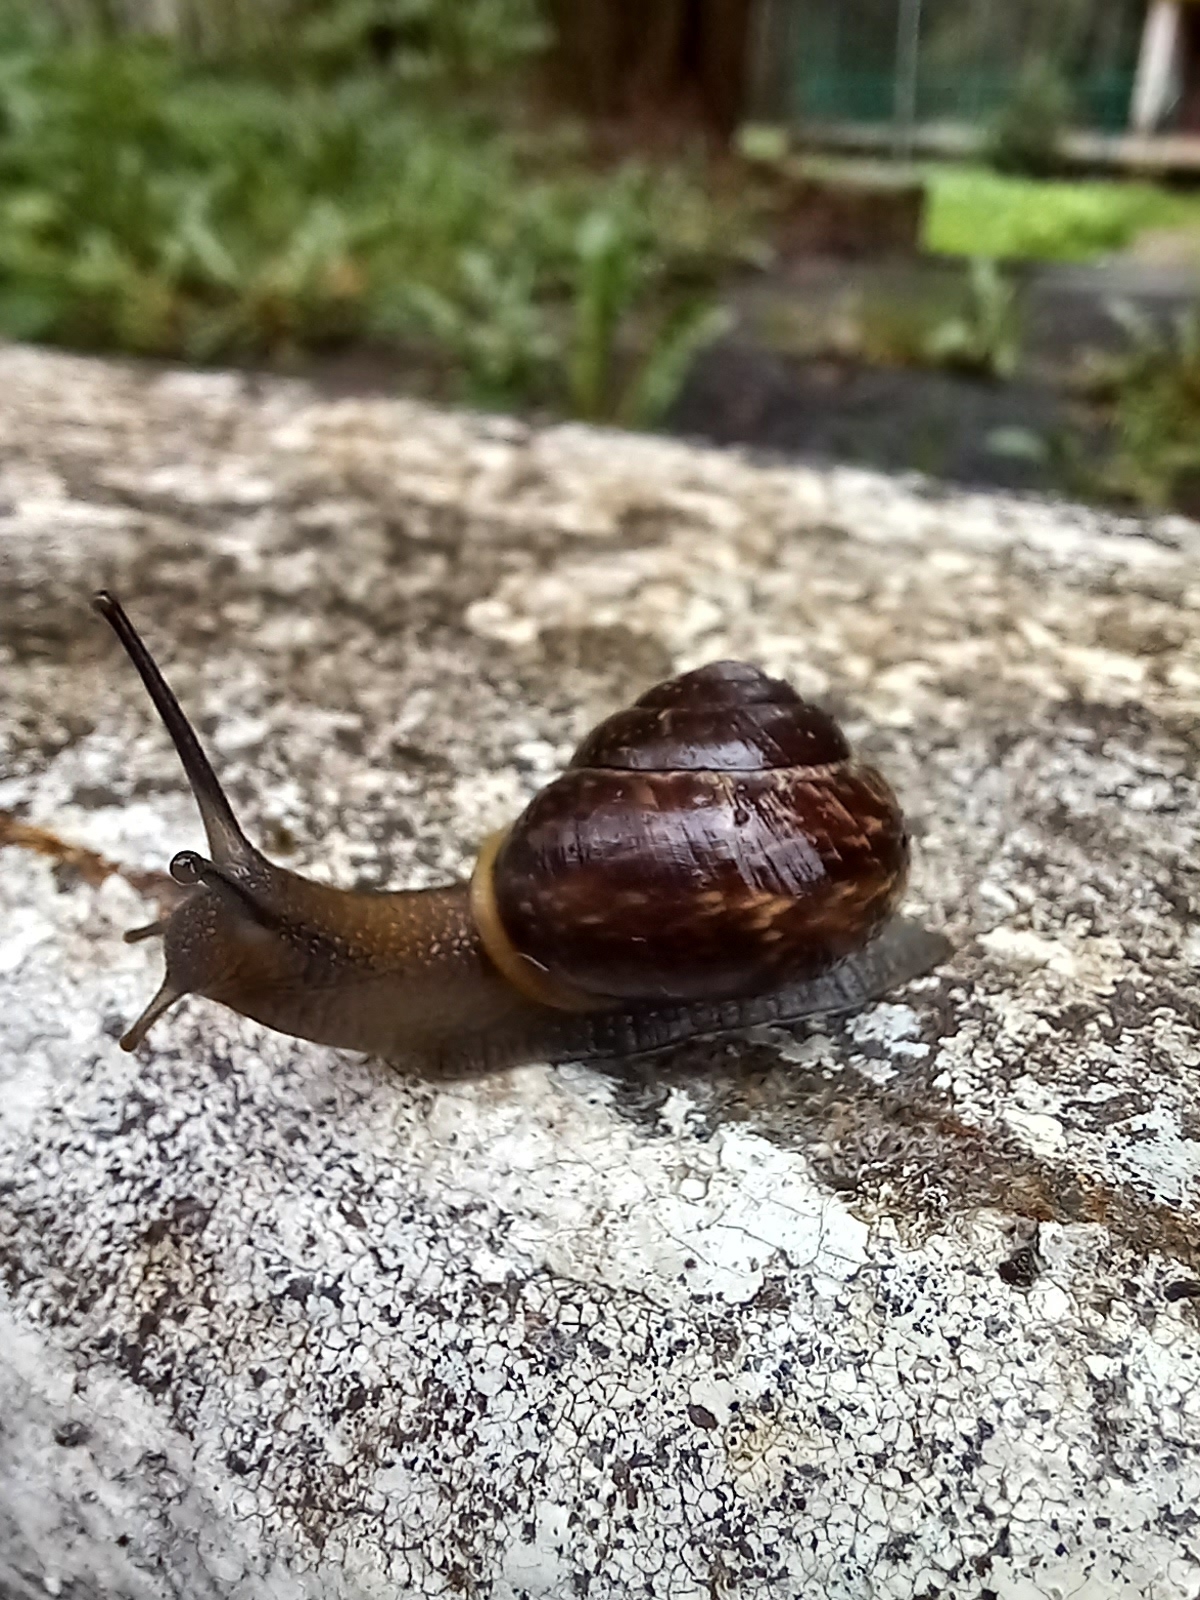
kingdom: Animalia
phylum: Mollusca
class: Gastropoda
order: Stylommatophora
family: Helicidae
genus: Arianta
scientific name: Arianta arbustorum
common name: Copse snail
